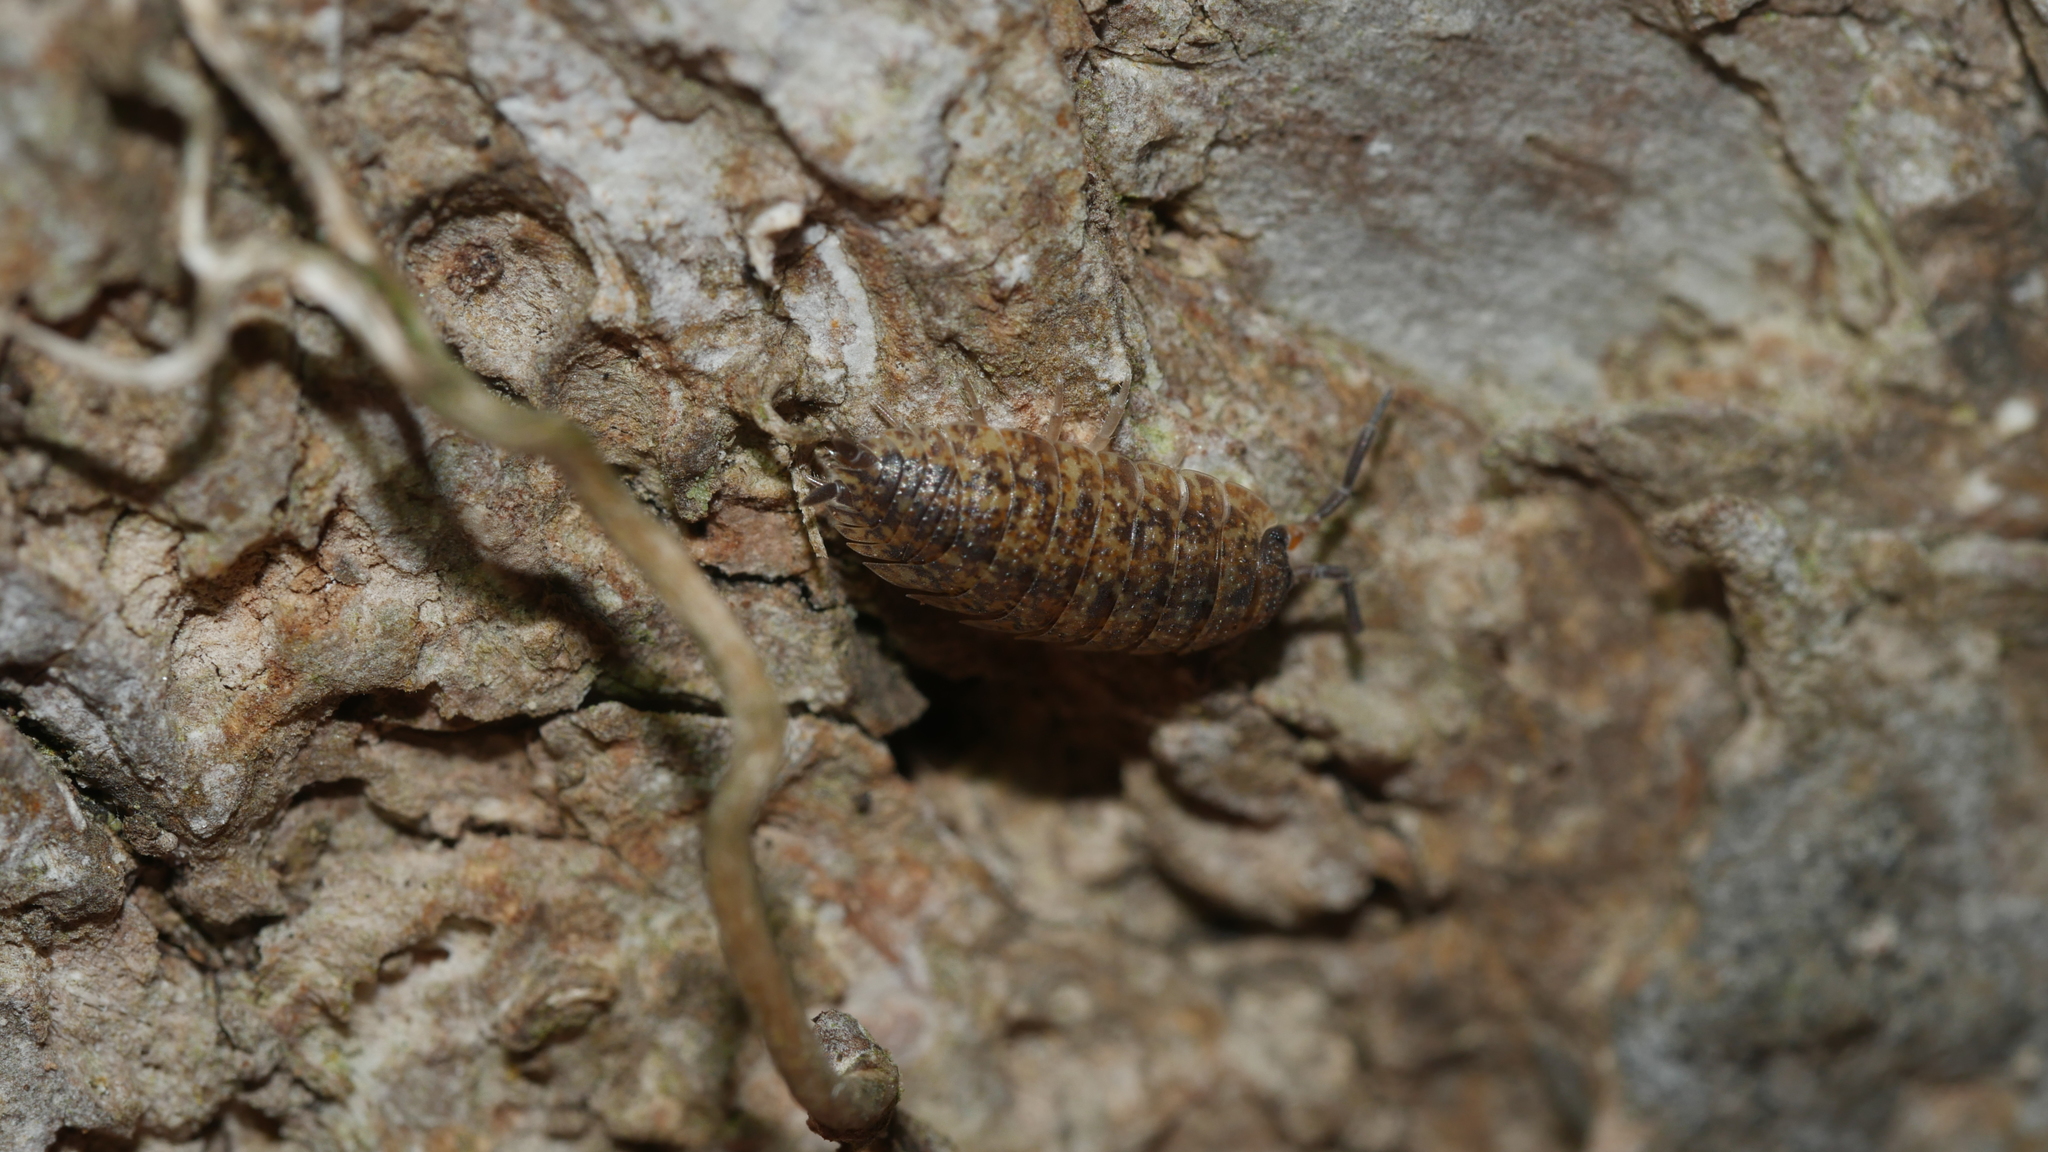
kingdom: Animalia
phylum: Arthropoda
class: Malacostraca
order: Isopoda
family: Porcellionidae
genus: Porcellio
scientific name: Porcellio scaber
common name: Common rough woodlouse
